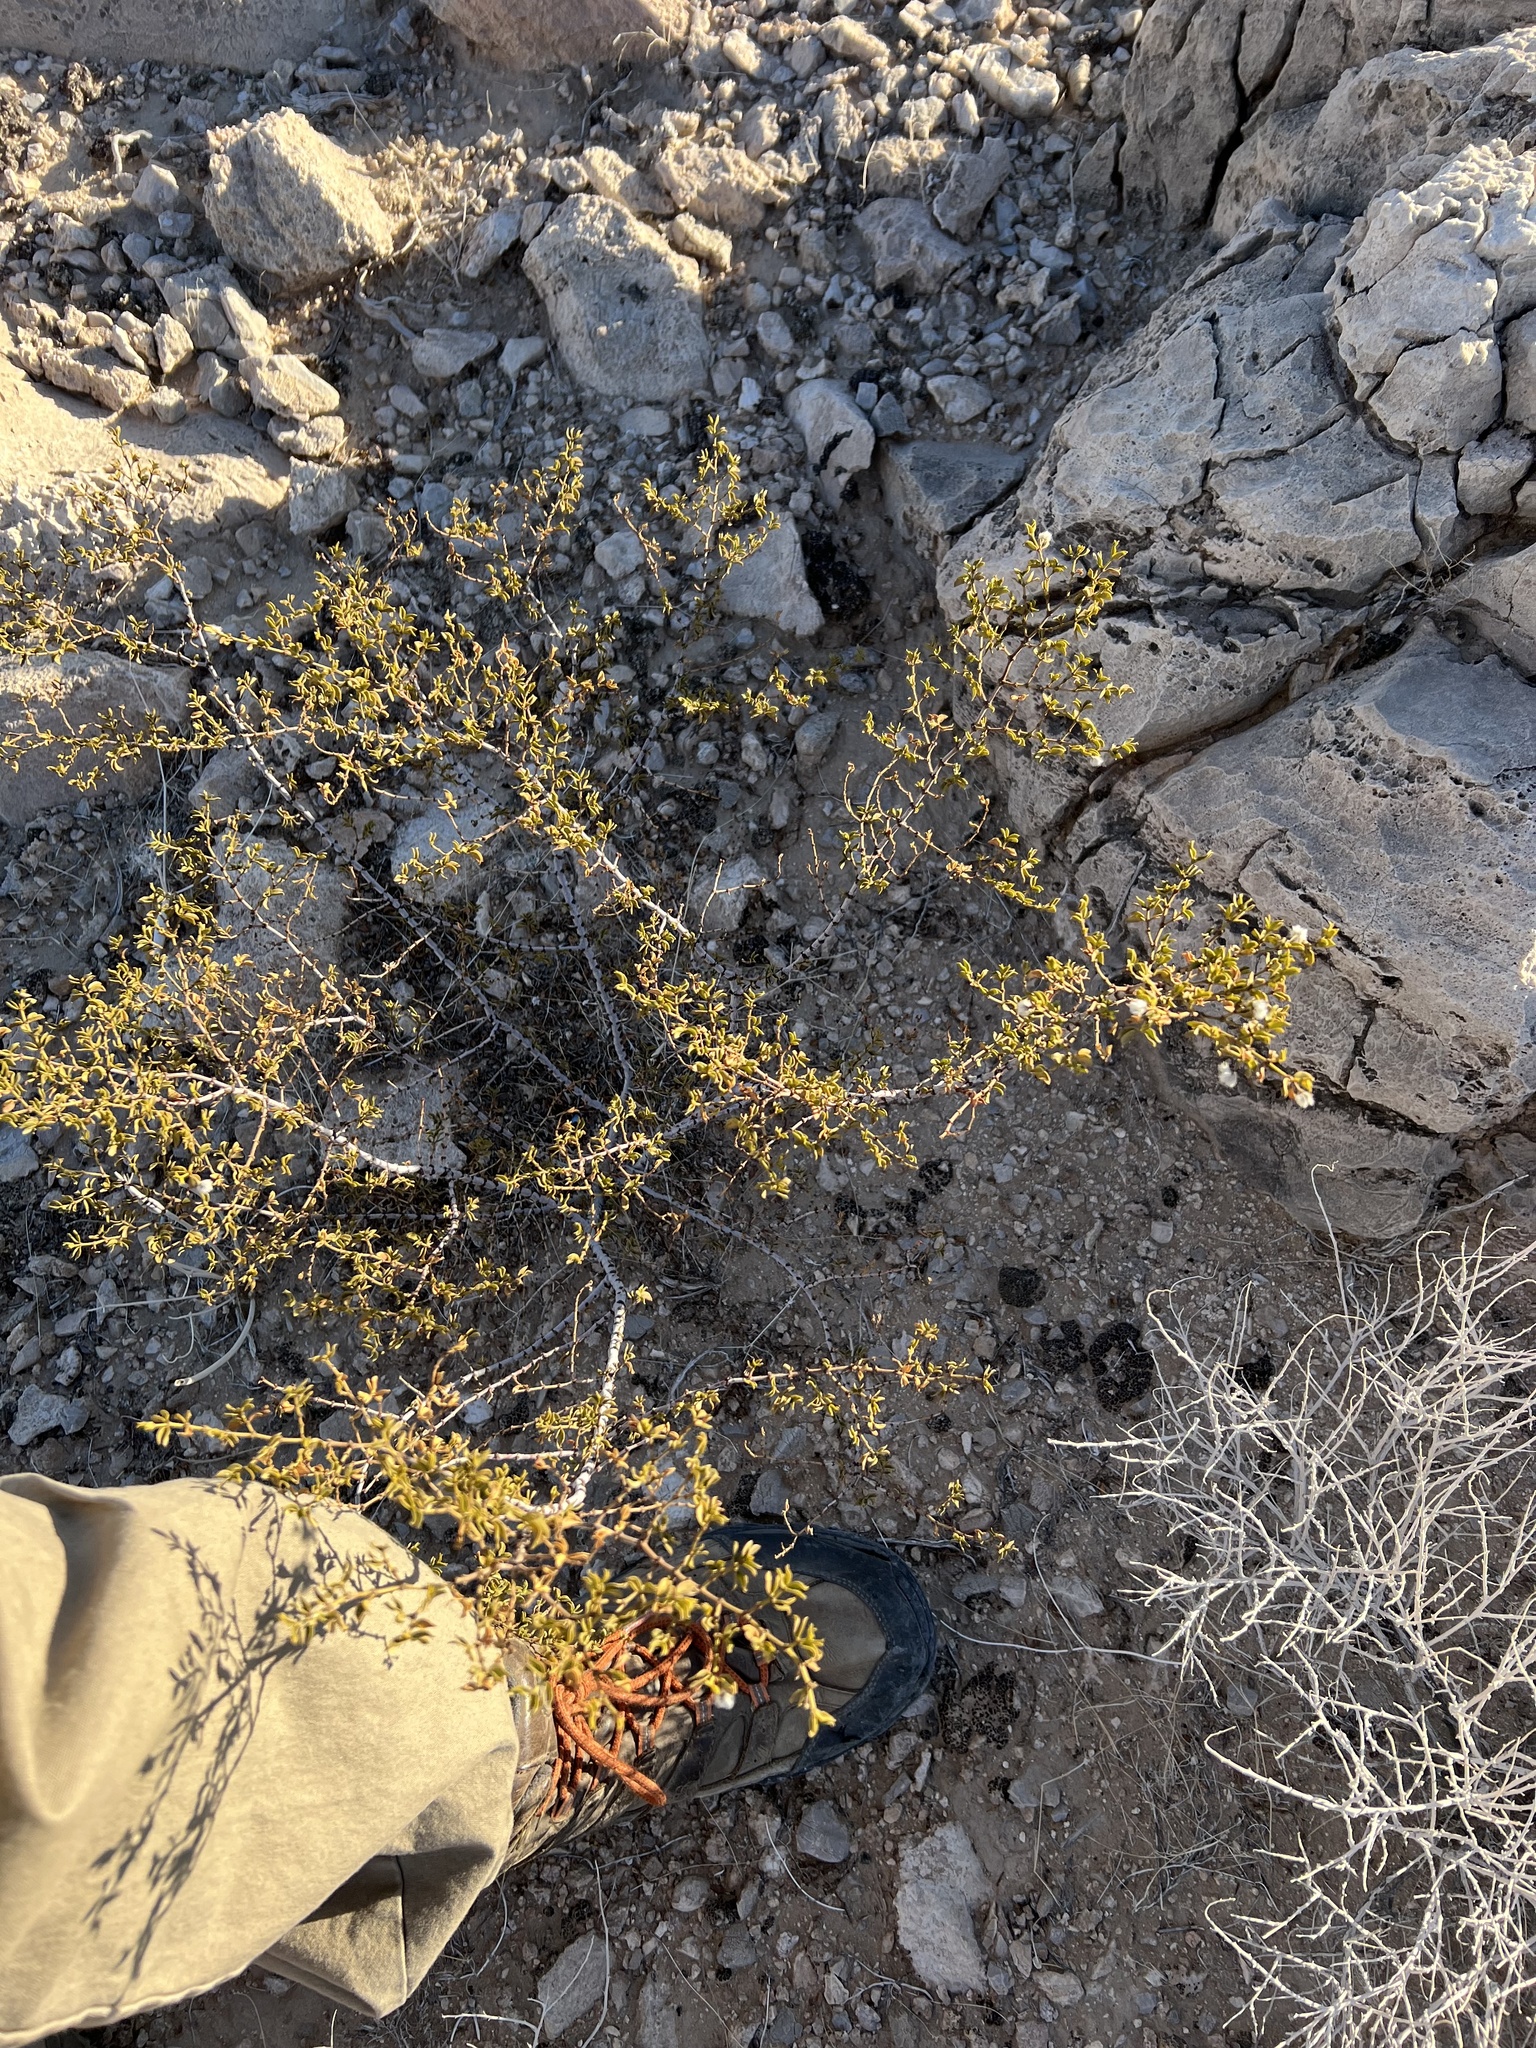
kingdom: Plantae
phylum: Tracheophyta
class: Magnoliopsida
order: Zygophyllales
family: Zygophyllaceae
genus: Larrea
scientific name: Larrea tridentata
